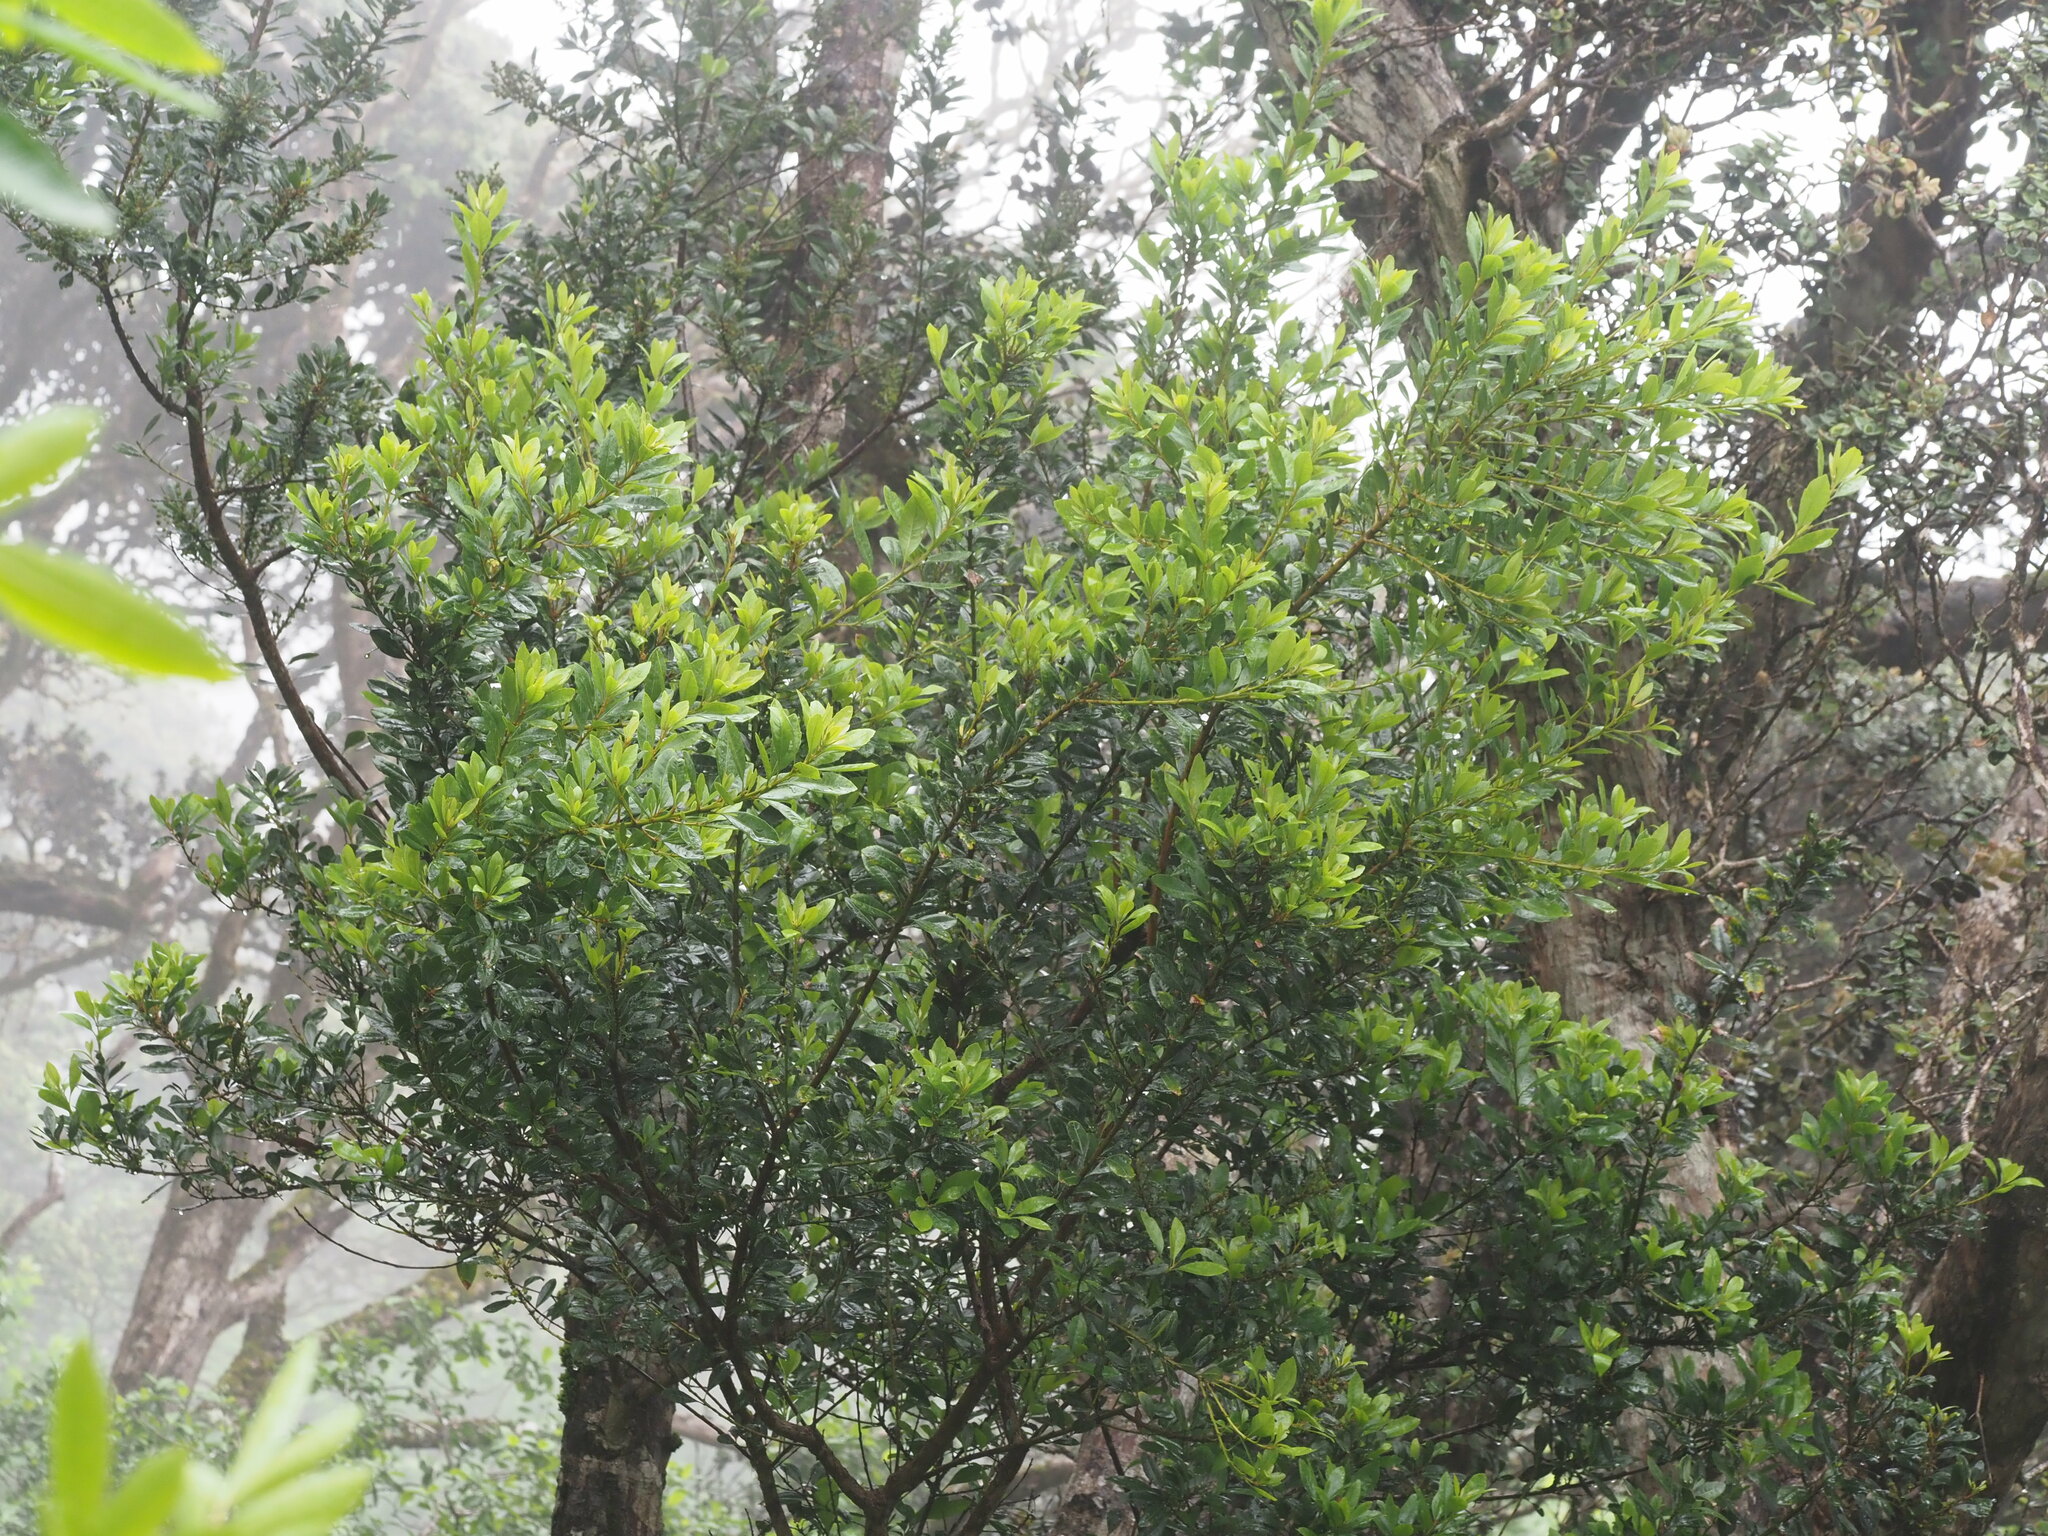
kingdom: Plantae
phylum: Tracheophyta
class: Magnoliopsida
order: Fagales
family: Myricaceae
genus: Morella
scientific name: Morella faya
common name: Firetree
